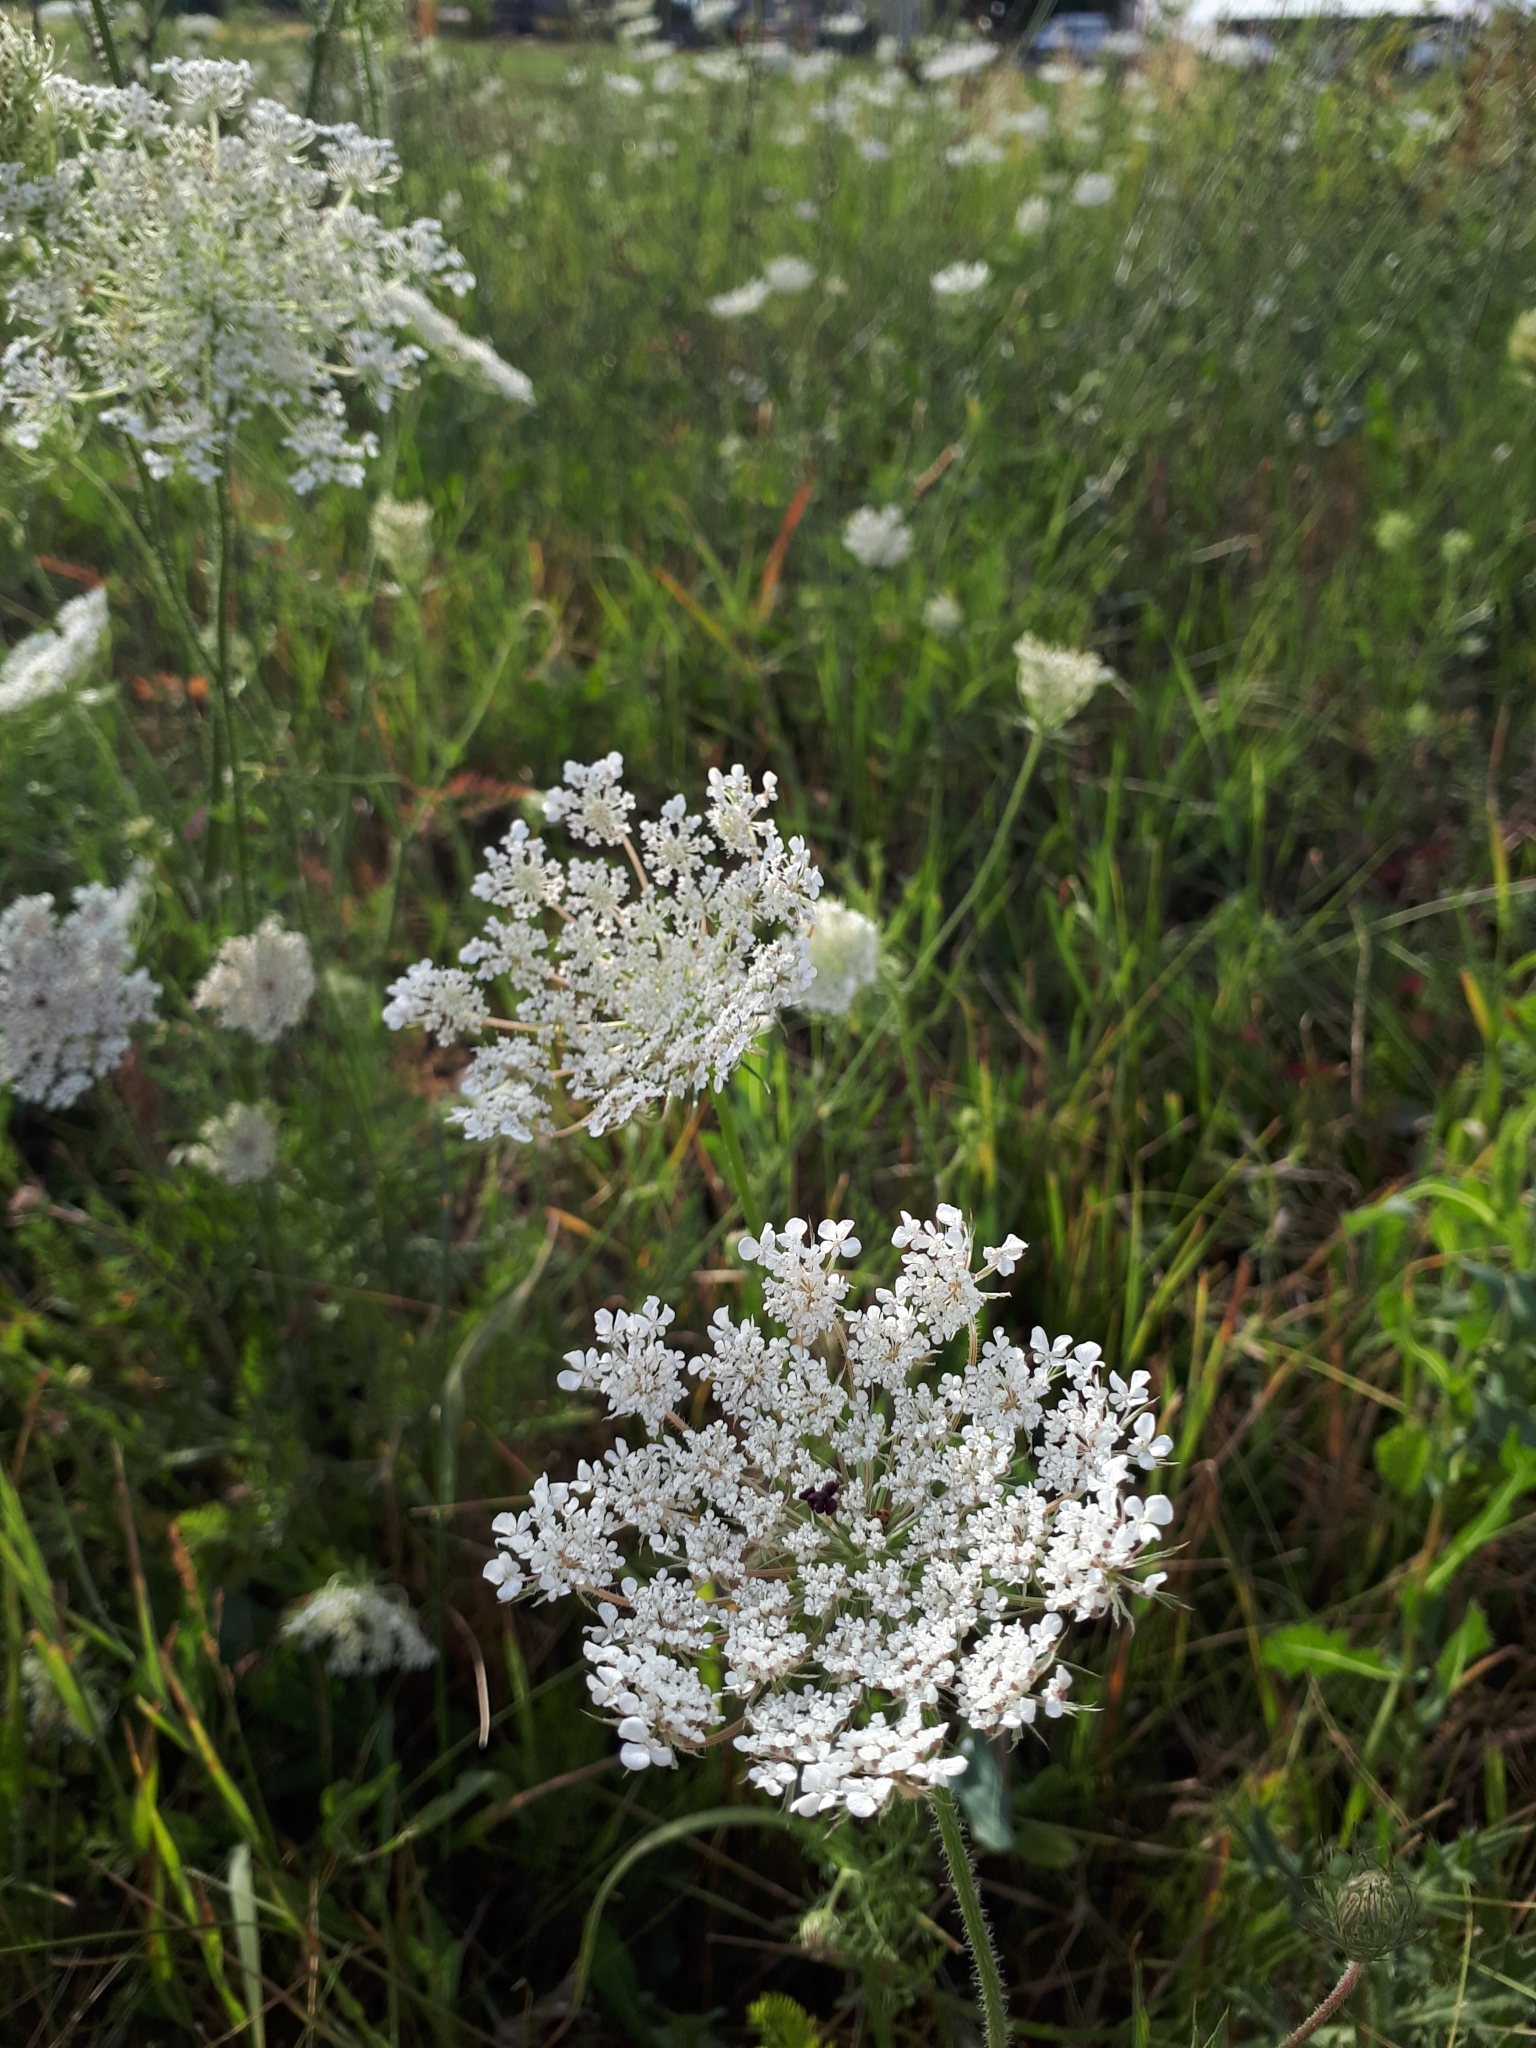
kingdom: Plantae
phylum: Tracheophyta
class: Magnoliopsida
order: Apiales
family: Apiaceae
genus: Daucus
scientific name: Daucus carota
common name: Wild carrot
